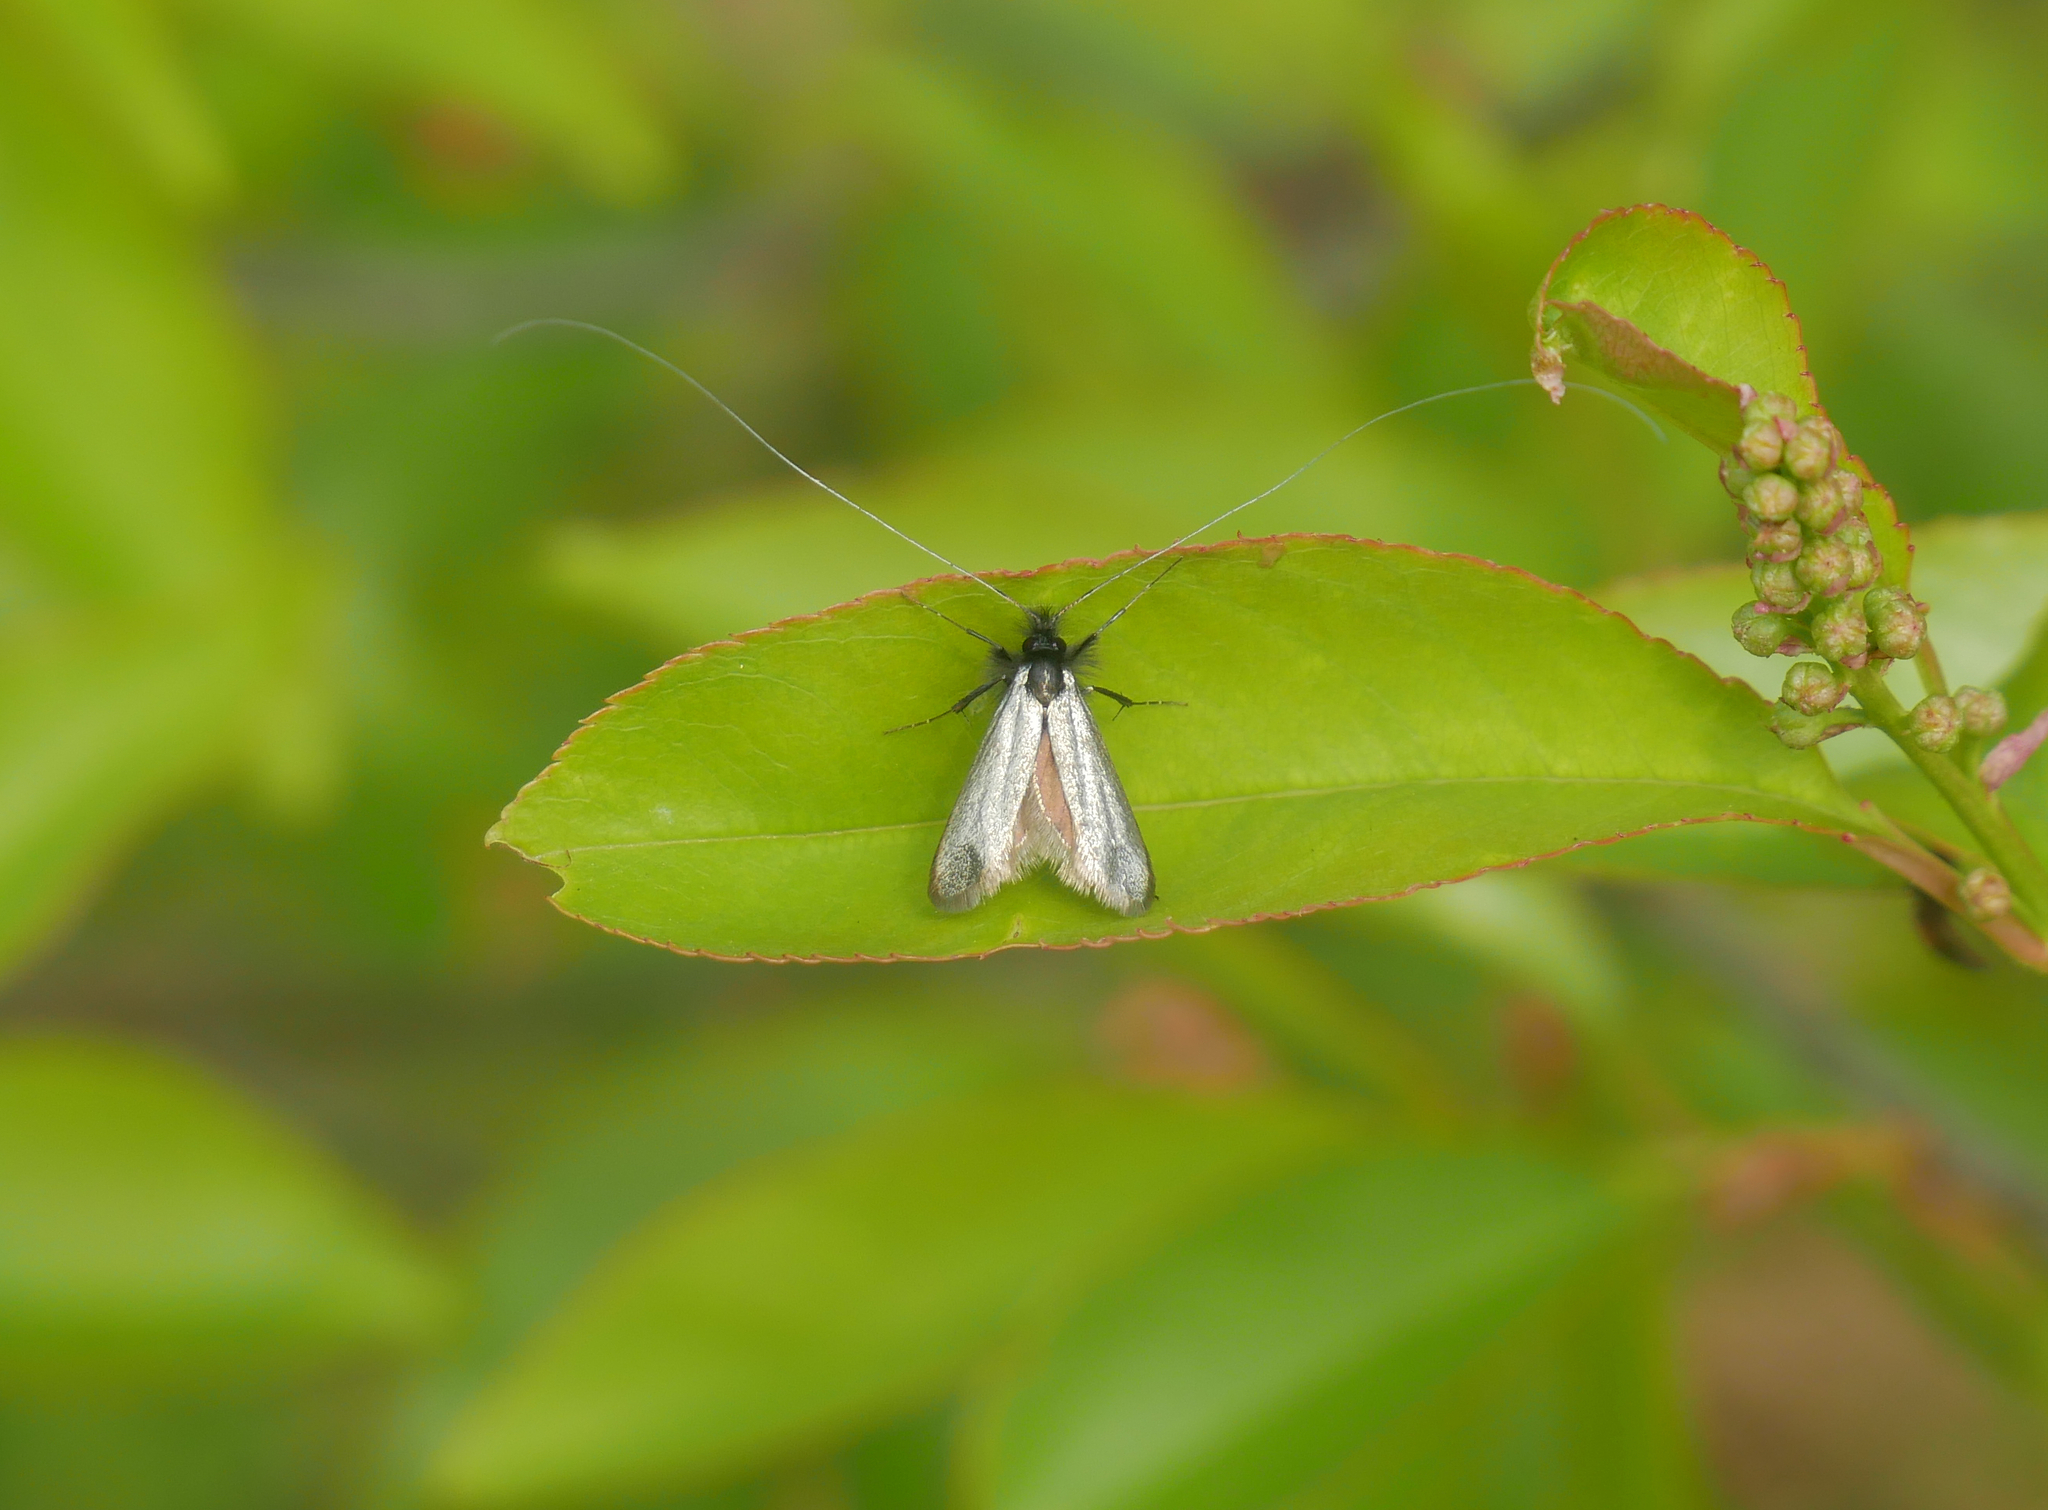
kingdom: Animalia
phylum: Arthropoda
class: Insecta
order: Lepidoptera
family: Adelidae
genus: Adela
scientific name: Adela viridella
